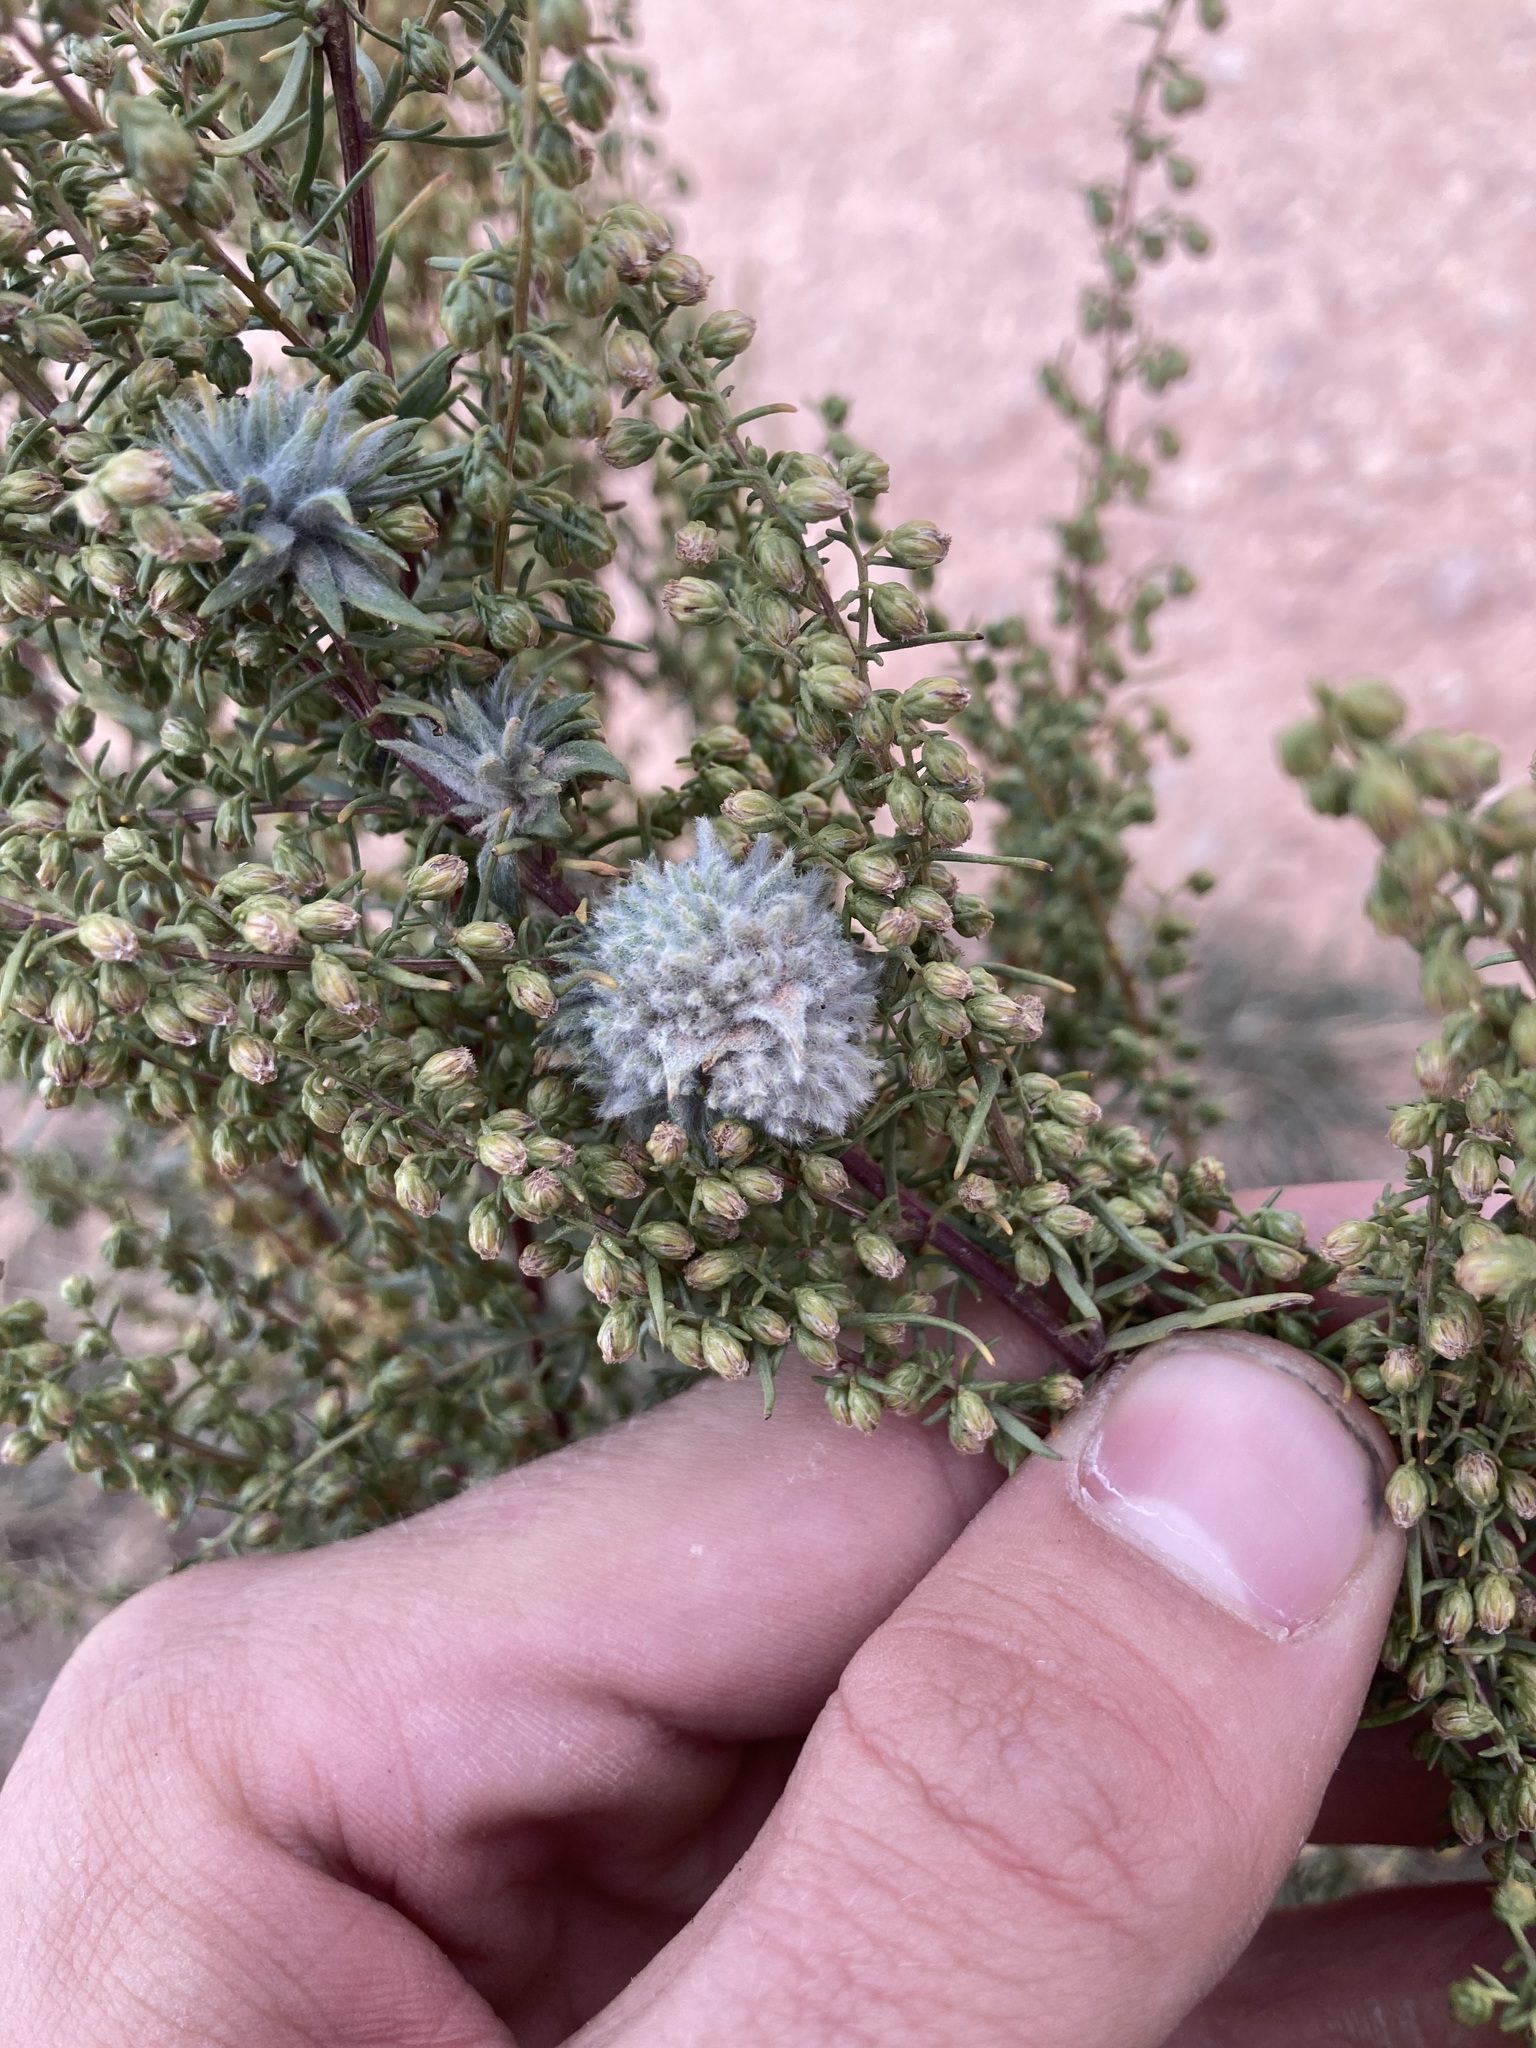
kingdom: Plantae
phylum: Tracheophyta
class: Magnoliopsida
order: Asterales
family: Asteraceae
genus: Artemisia
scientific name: Artemisia dracunculus
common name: Tarragon
